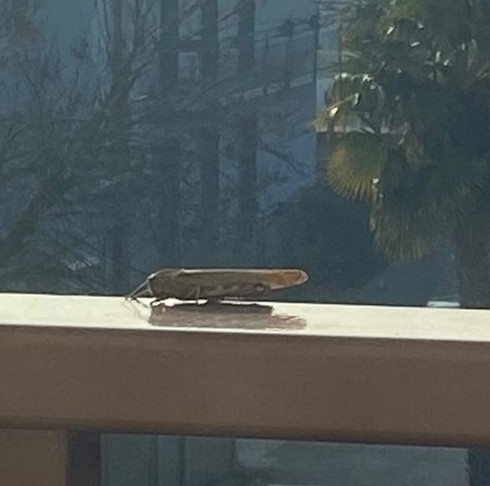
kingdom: Animalia
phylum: Arthropoda
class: Insecta
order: Orthoptera
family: Acrididae
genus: Anacridium
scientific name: Anacridium aegyptium
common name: Egyptian grasshopper
